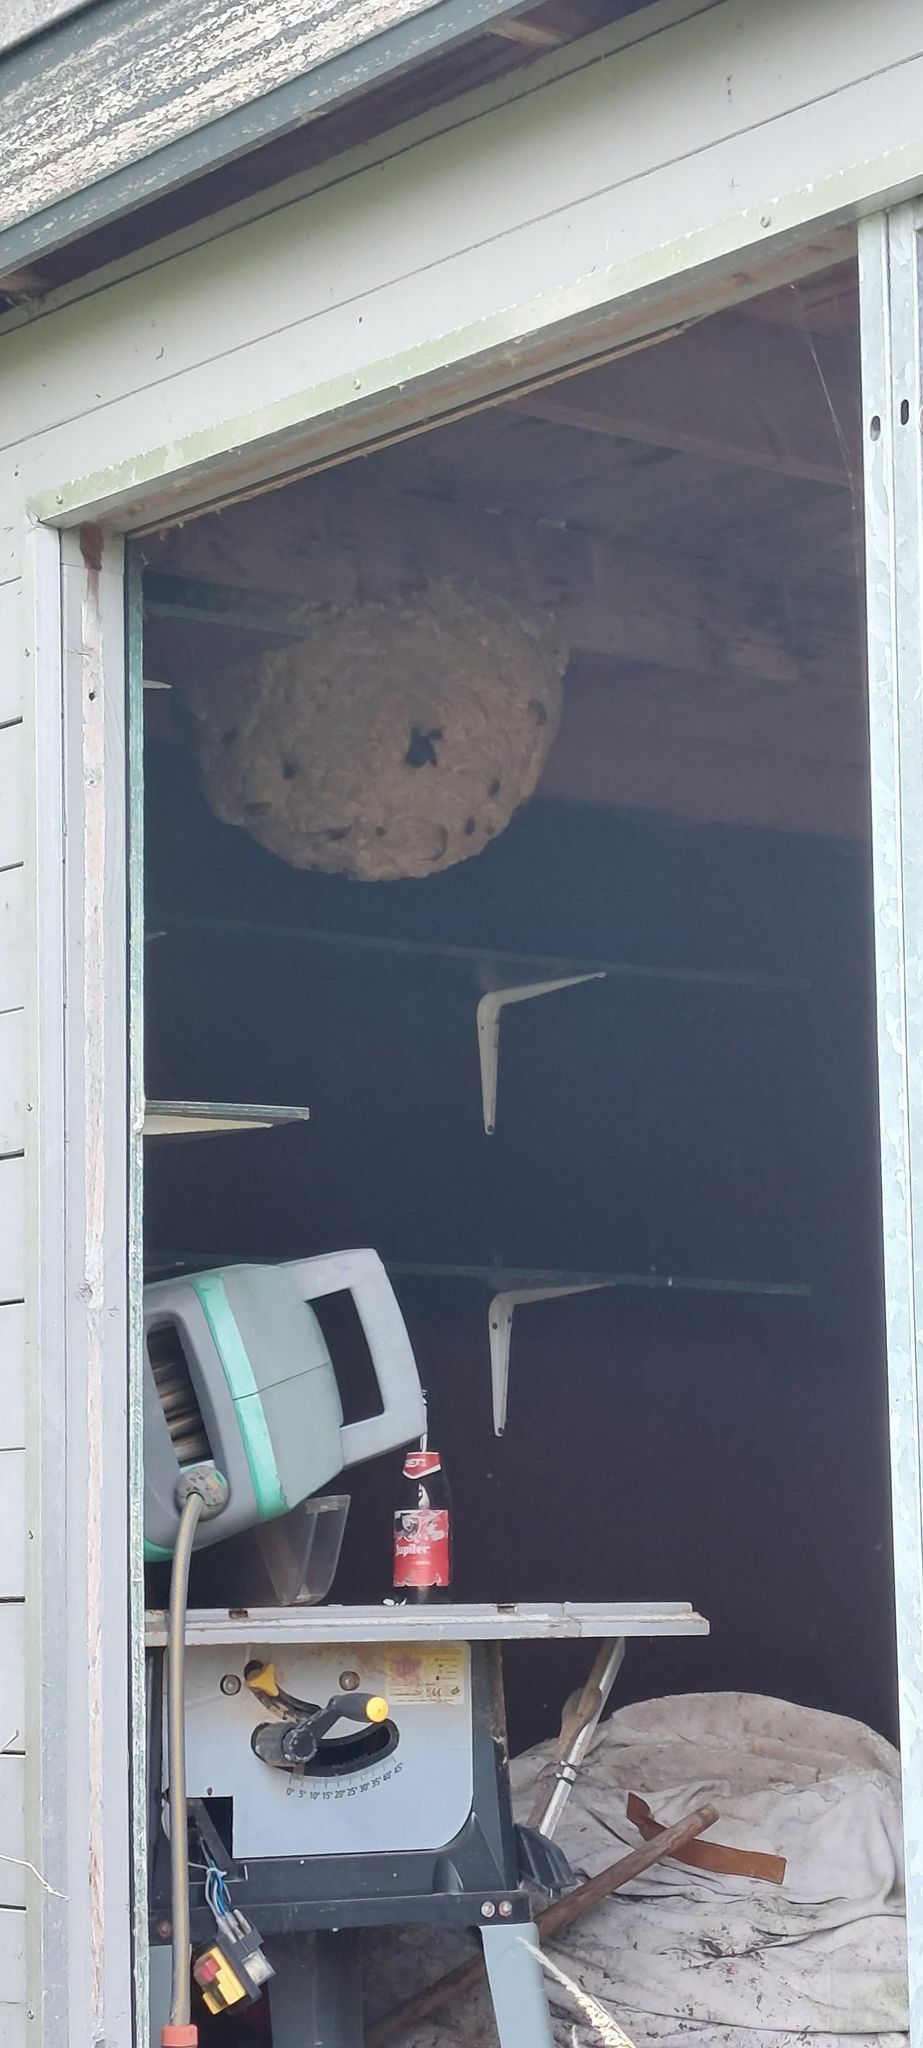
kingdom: Animalia
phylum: Arthropoda
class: Insecta
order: Hymenoptera
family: Vespidae
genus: Vespa
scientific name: Vespa velutina
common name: Asian hornet
